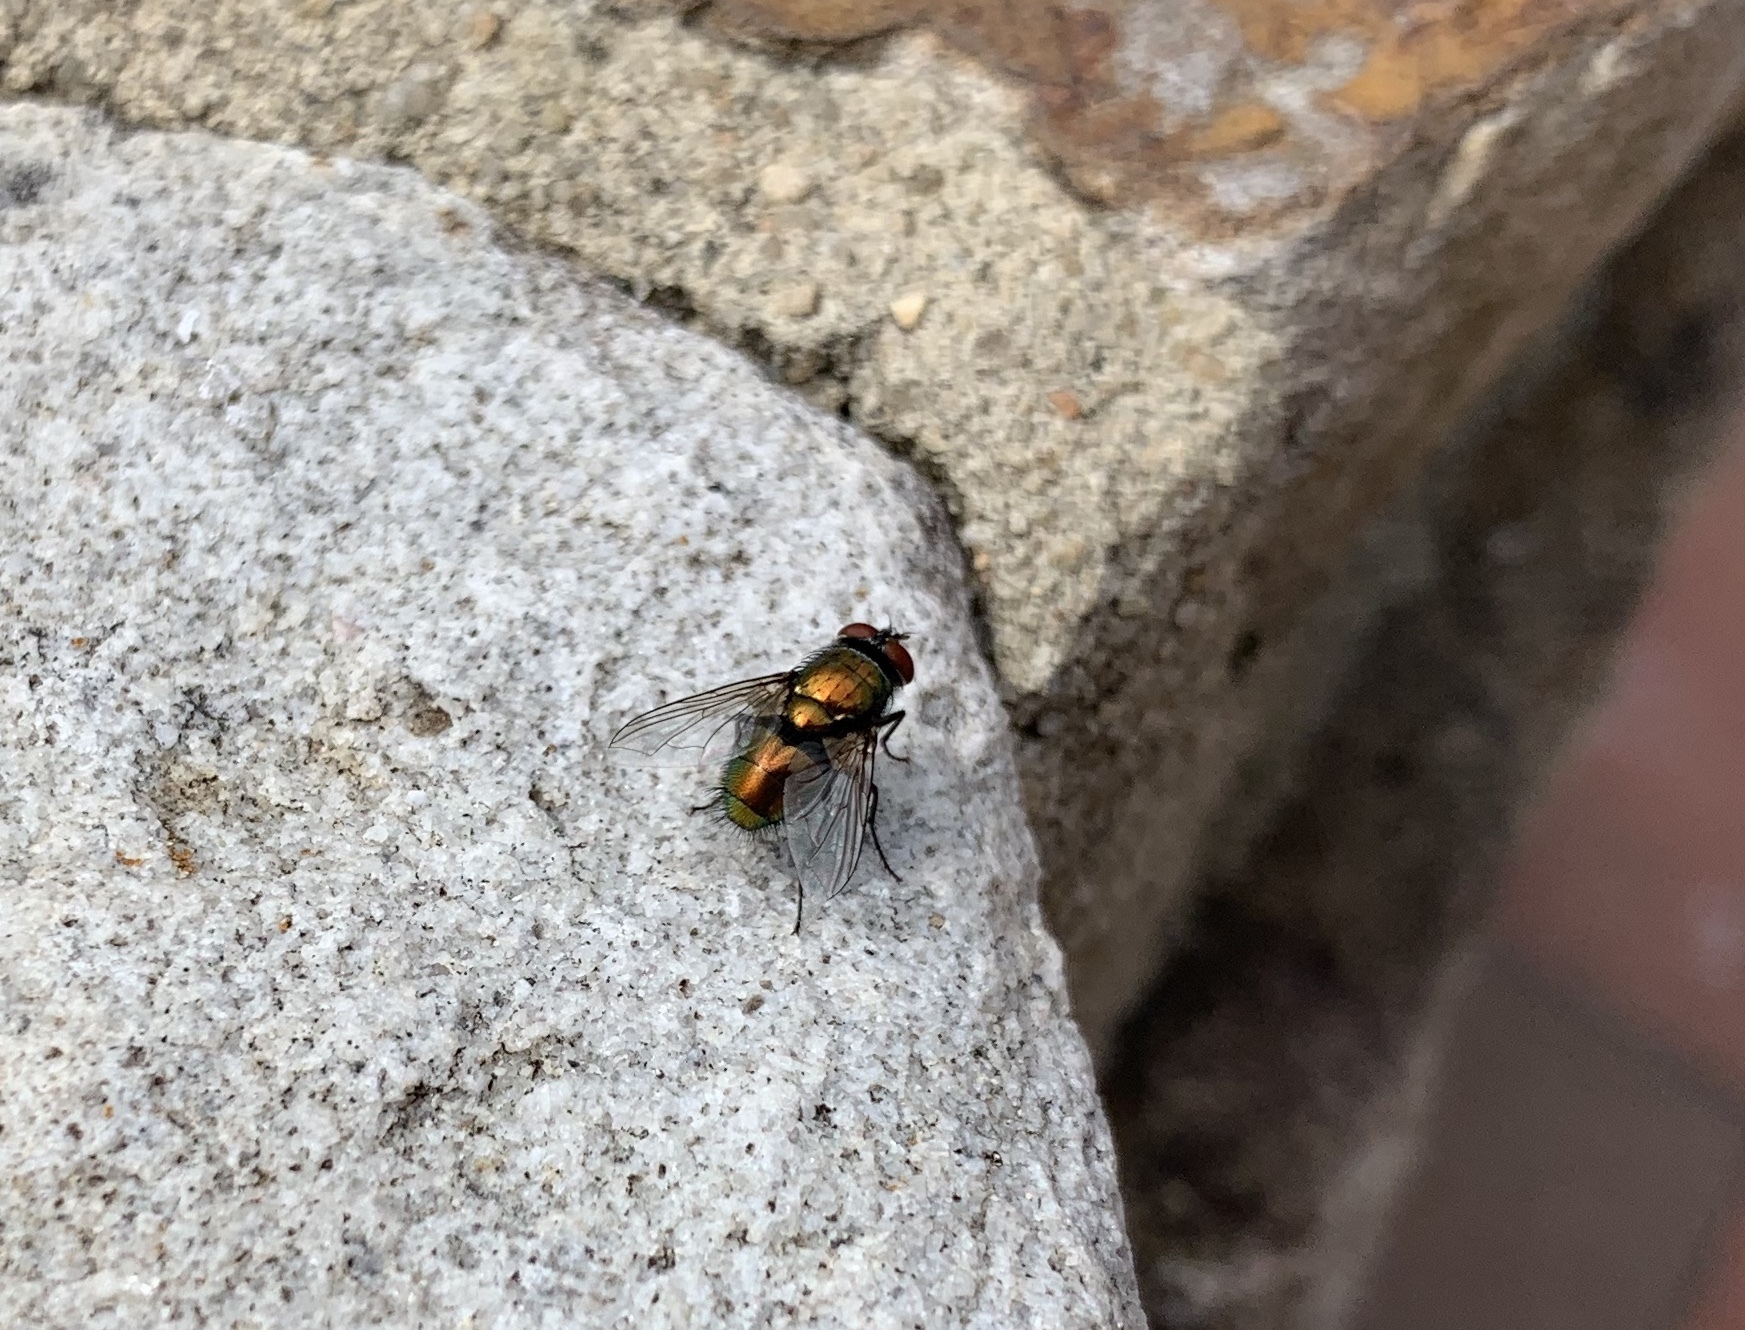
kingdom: Animalia
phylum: Arthropoda
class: Insecta
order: Diptera
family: Calliphoridae
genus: Lucilia
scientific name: Lucilia sericata
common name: Blow fly
